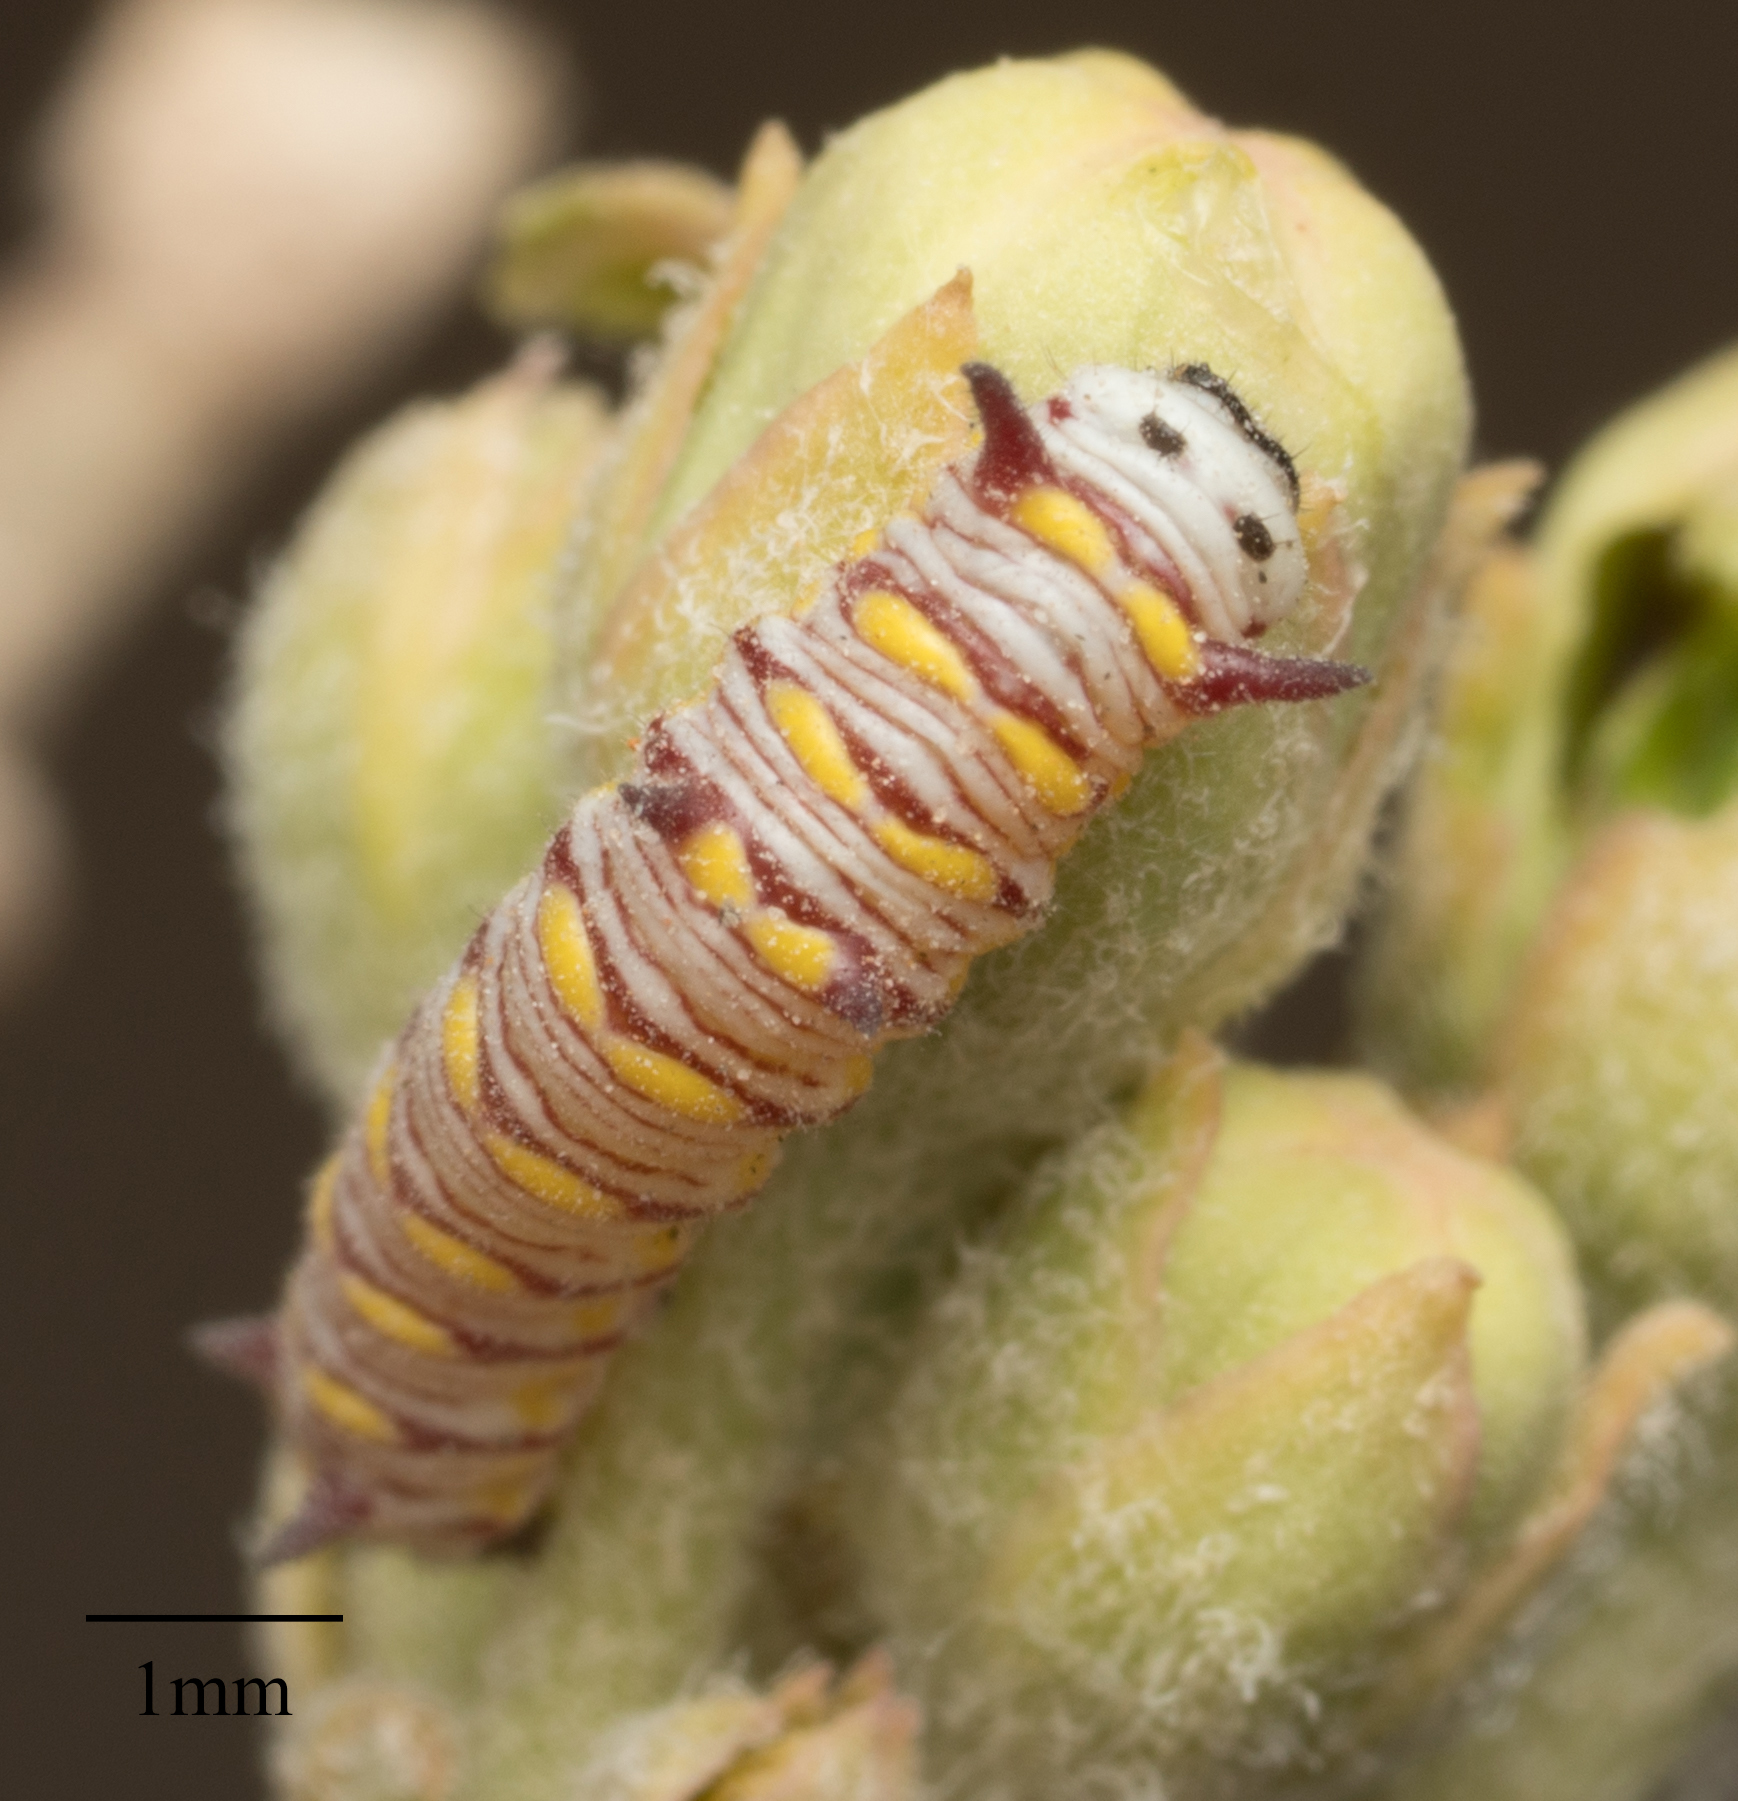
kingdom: Animalia
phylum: Arthropoda
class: Insecta
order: Lepidoptera
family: Nymphalidae
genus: Danaus
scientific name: Danaus gilippus
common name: Queen
